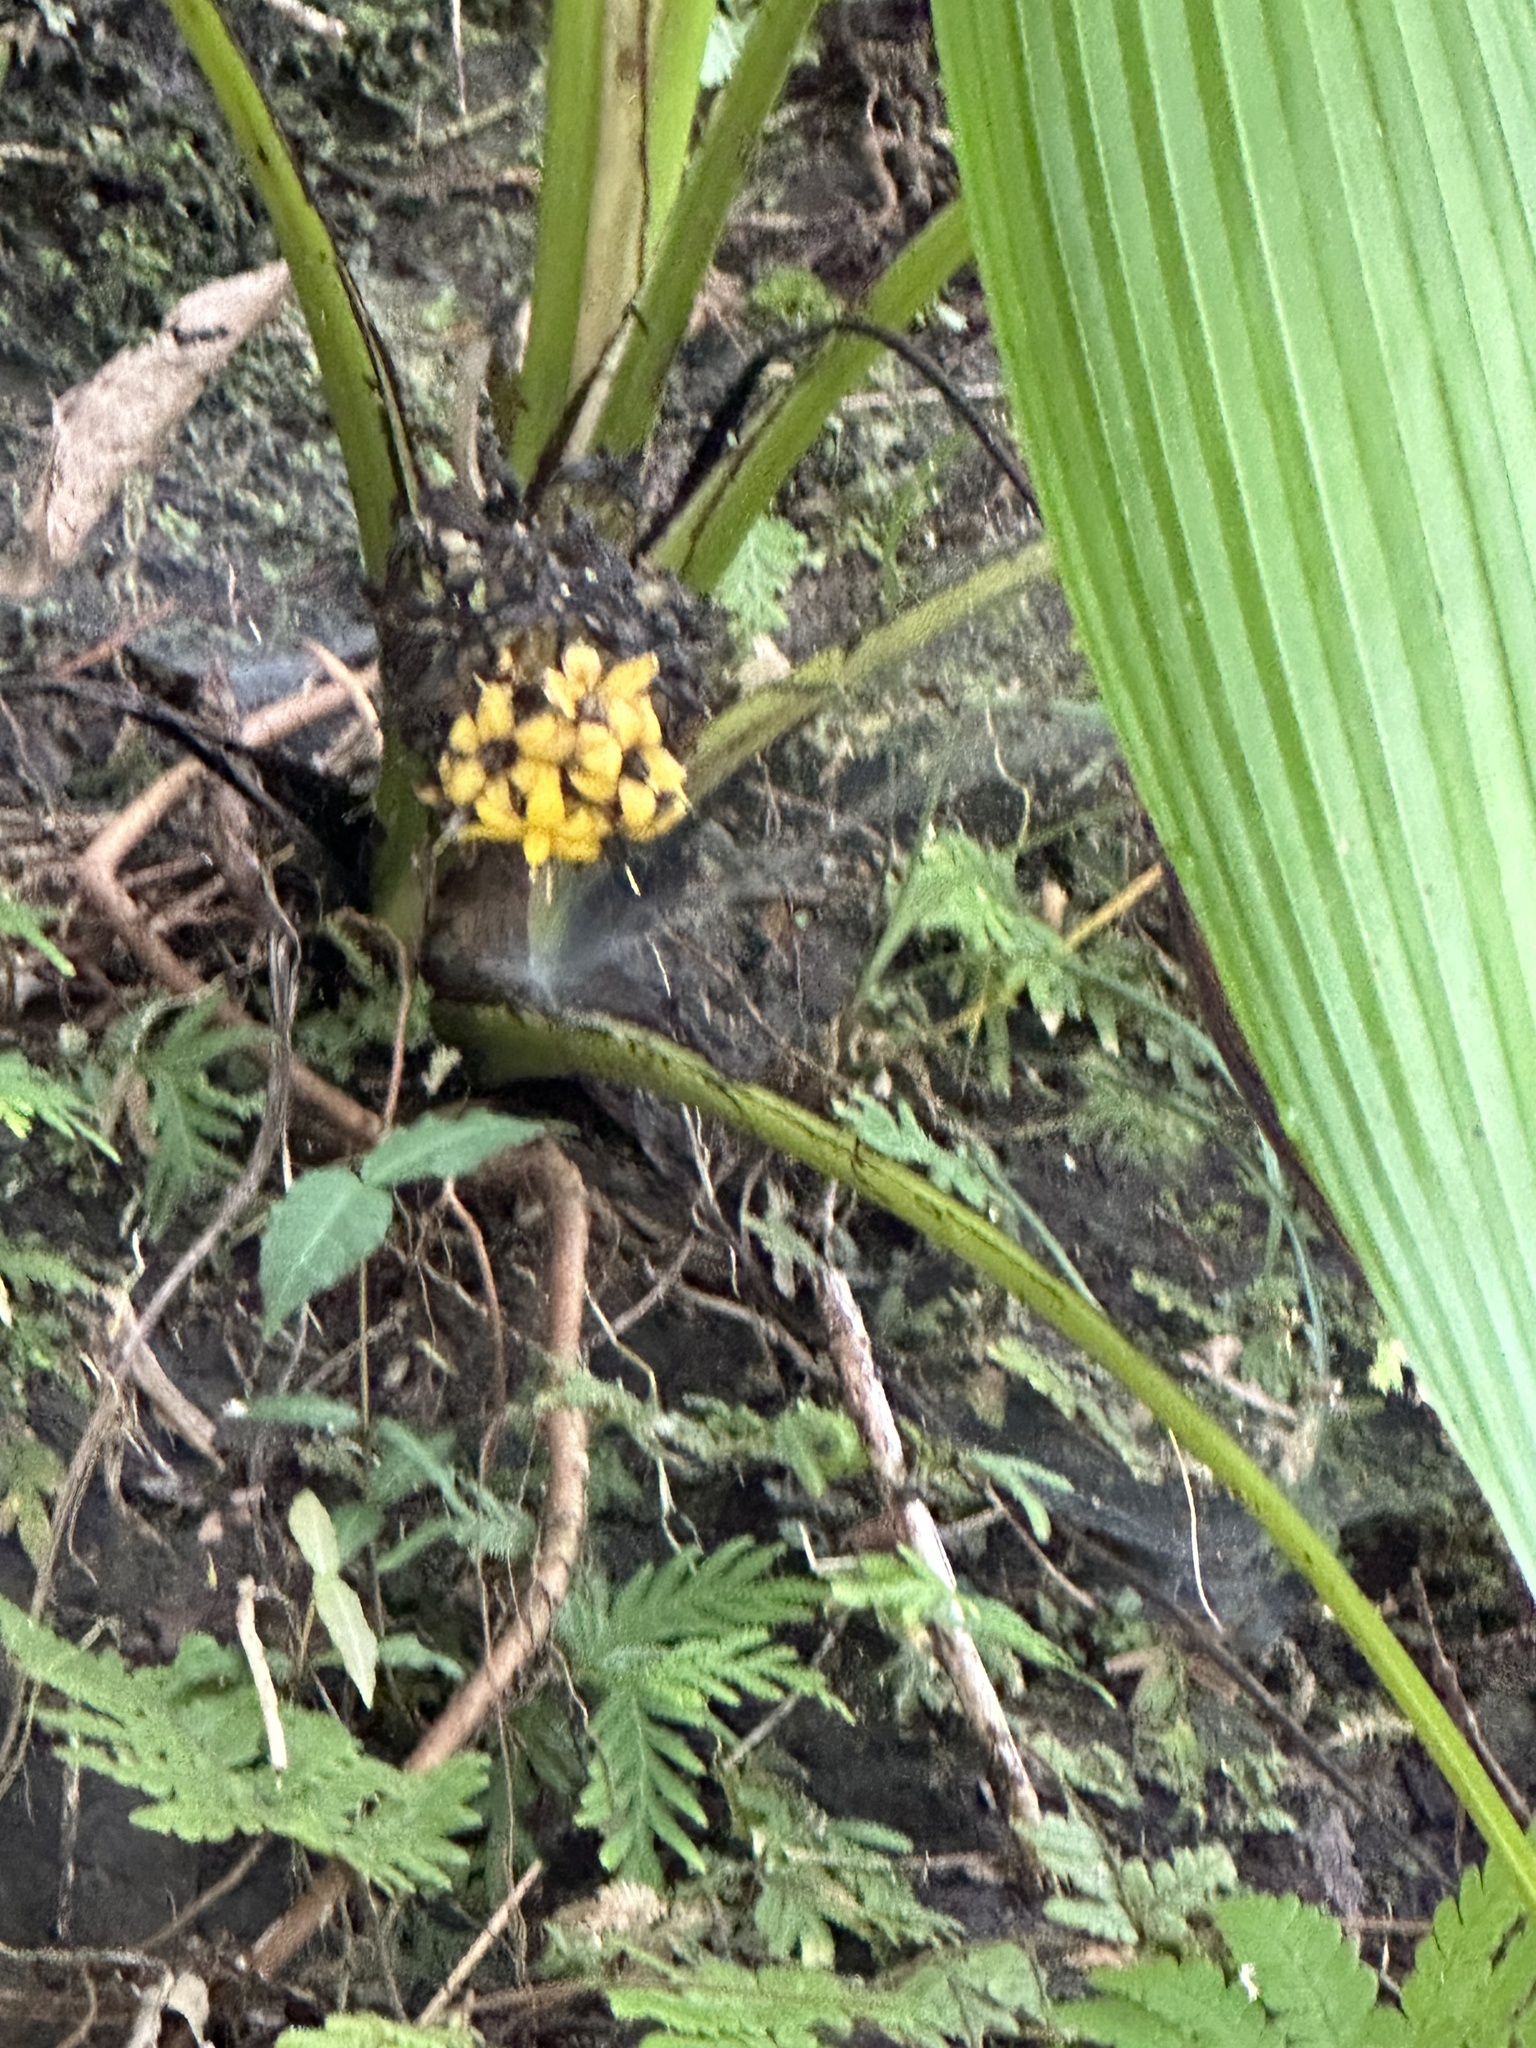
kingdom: Plantae
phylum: Tracheophyta
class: Liliopsida
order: Asparagales
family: Hypoxidaceae
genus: Curculigo
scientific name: Curculigo capitulata
